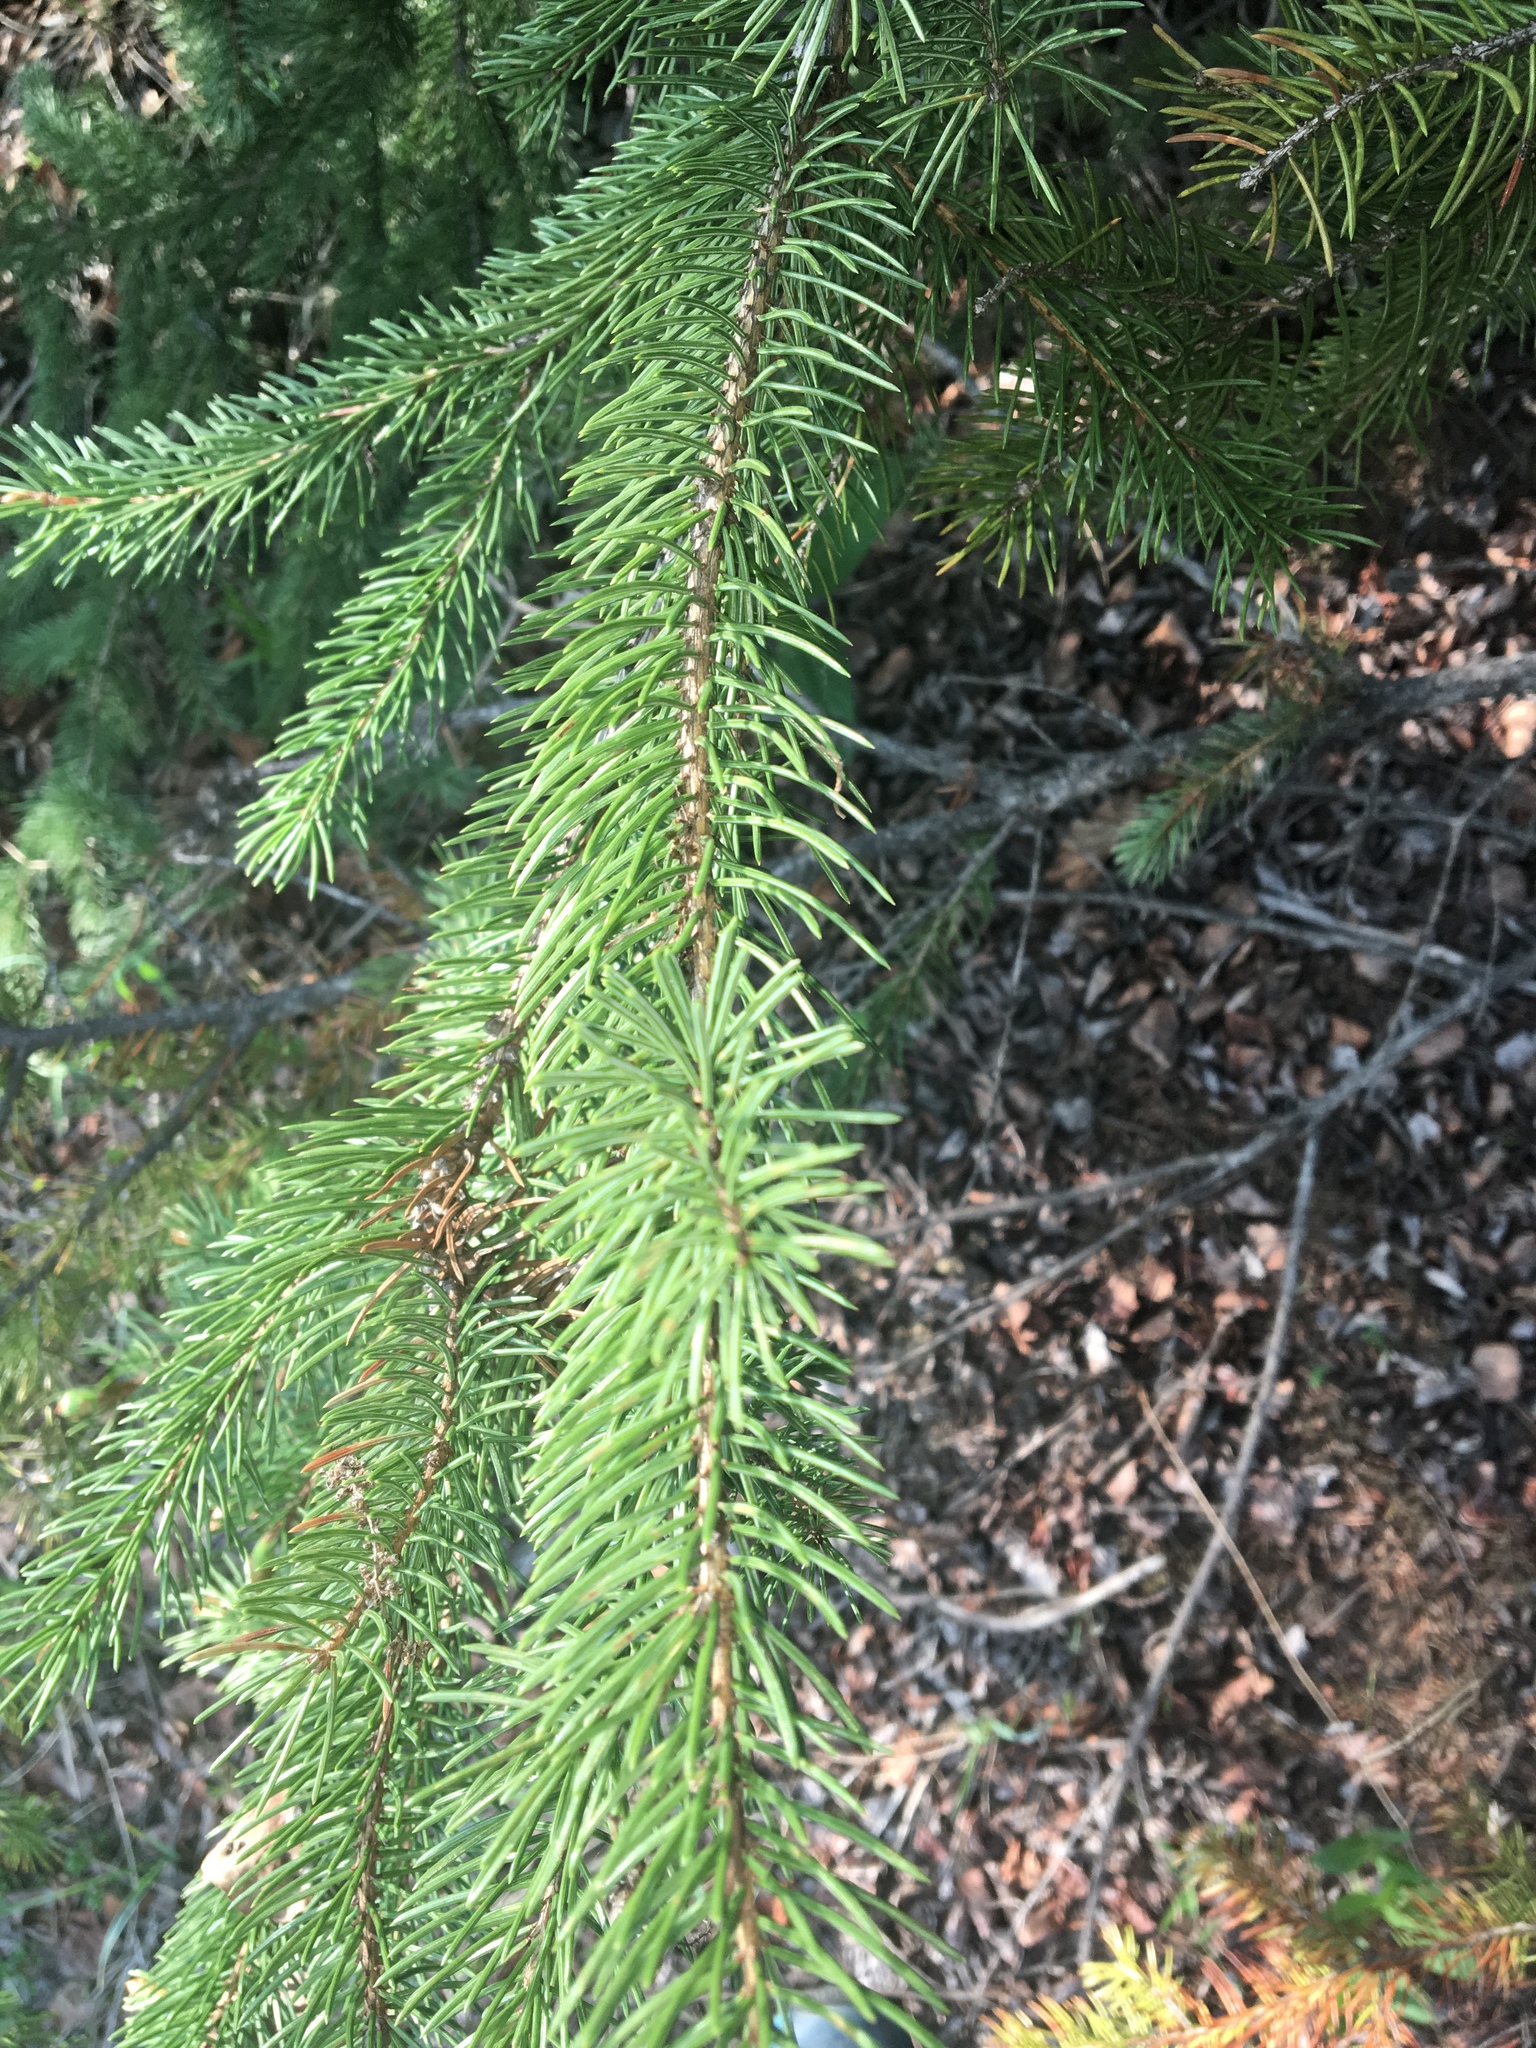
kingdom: Plantae
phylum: Tracheophyta
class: Pinopsida
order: Pinales
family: Pinaceae
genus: Picea
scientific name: Picea glauca
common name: White spruce
